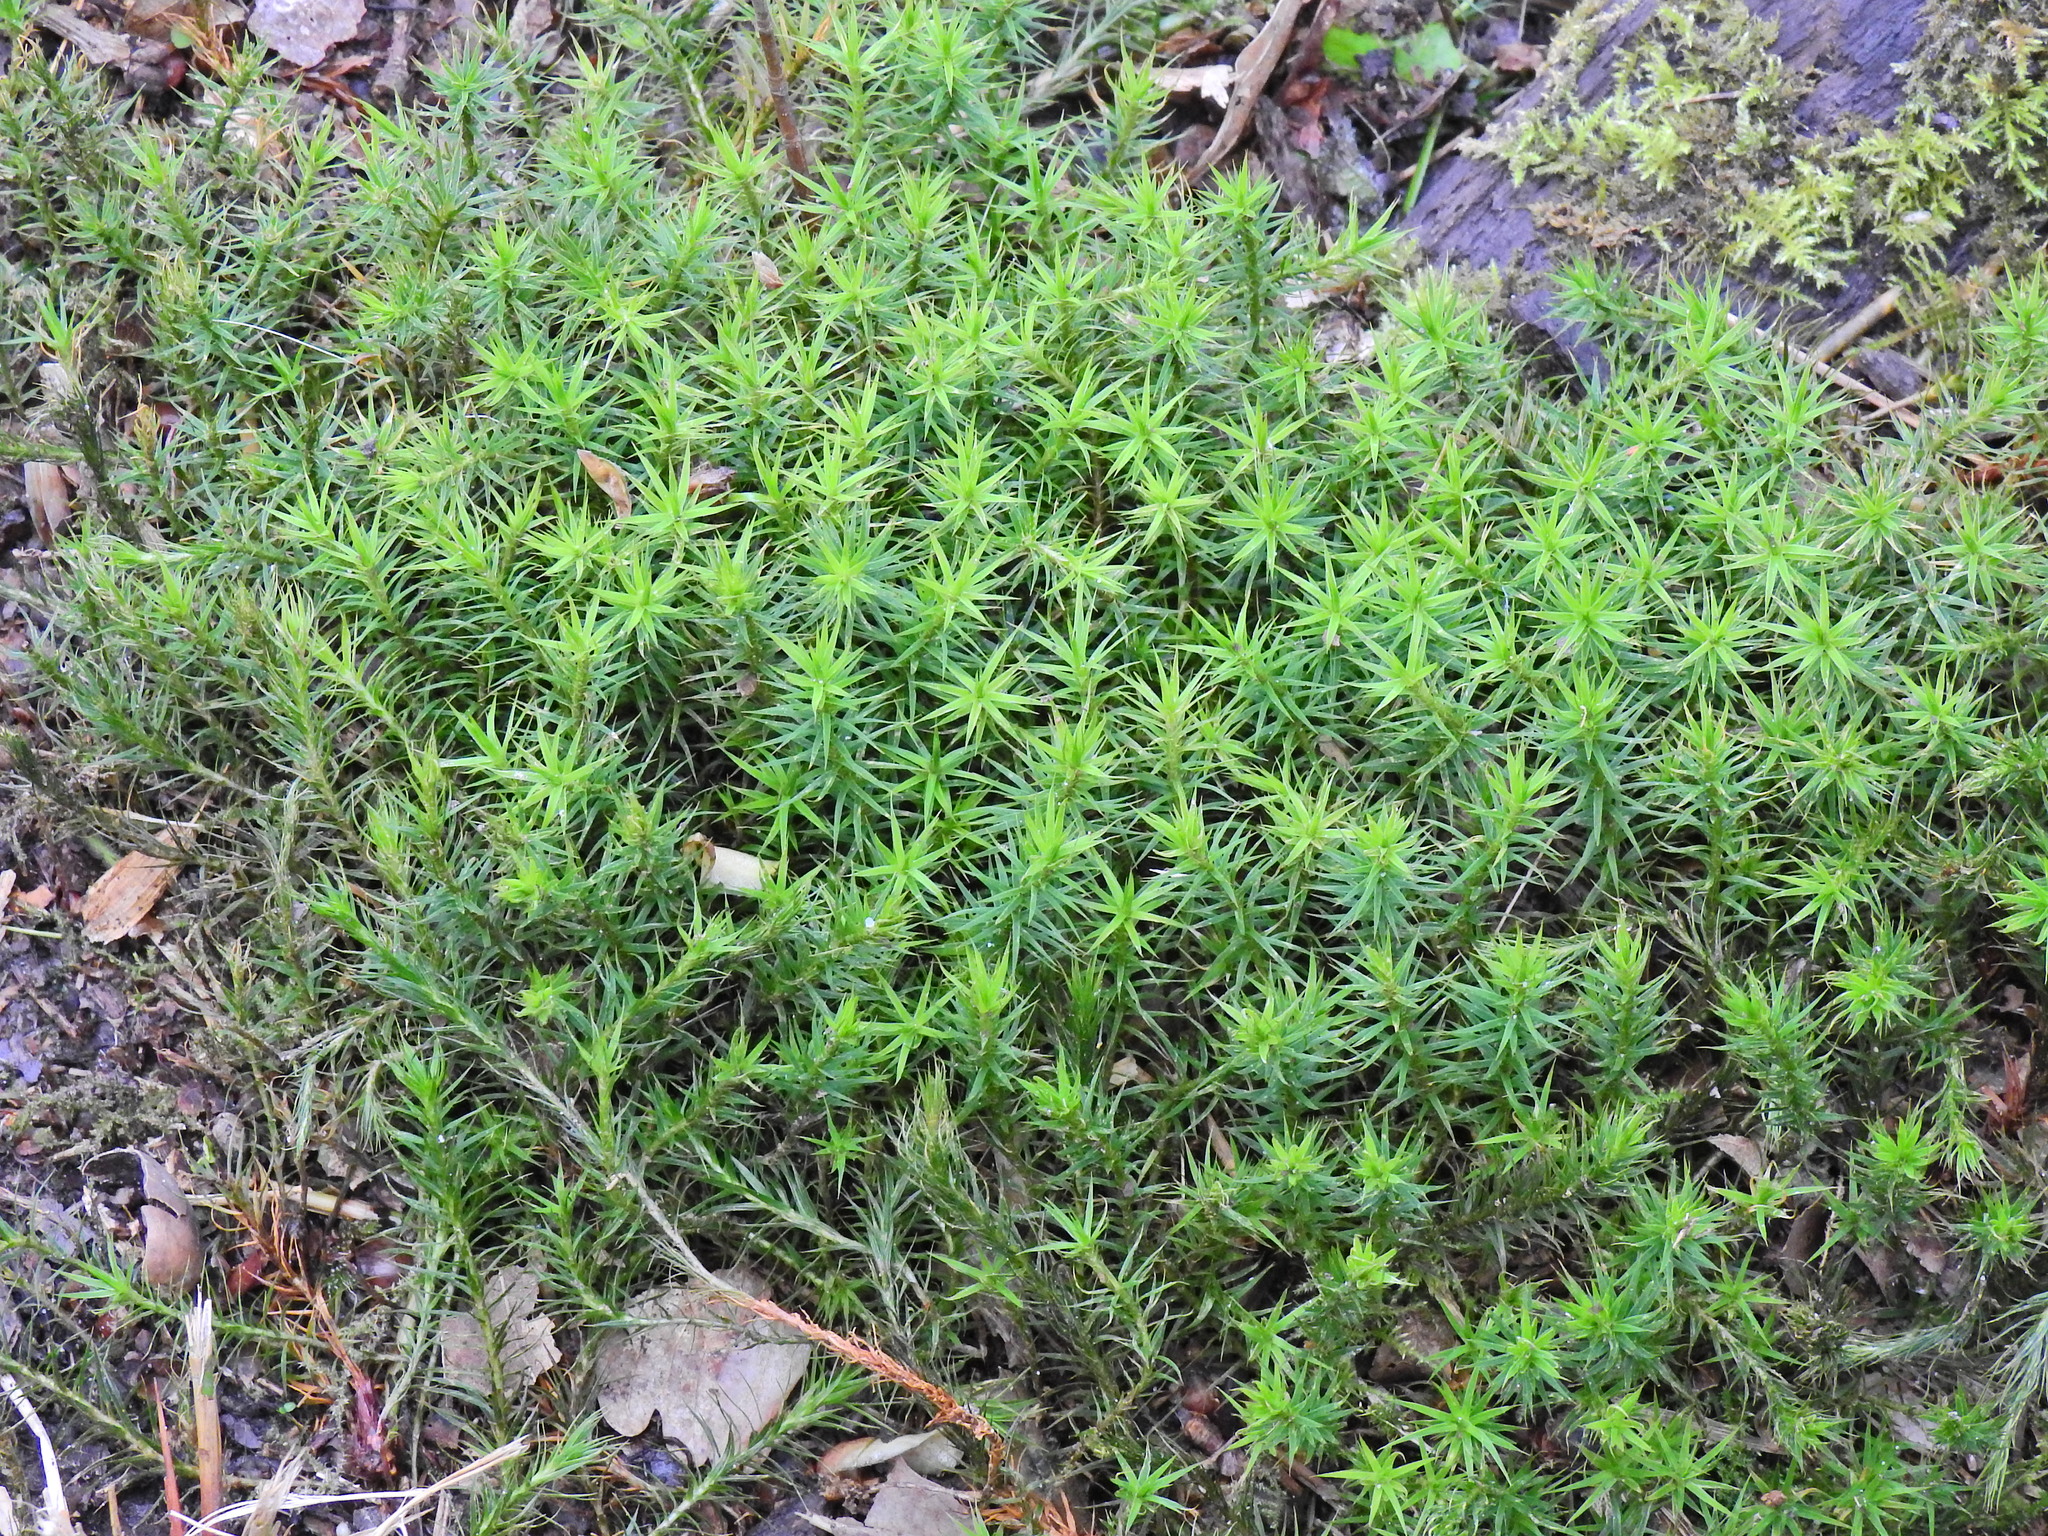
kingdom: Plantae
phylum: Bryophyta
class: Polytrichopsida
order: Polytrichales
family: Polytrichaceae
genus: Polytrichum
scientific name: Polytrichum formosum
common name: Bank haircap moss
